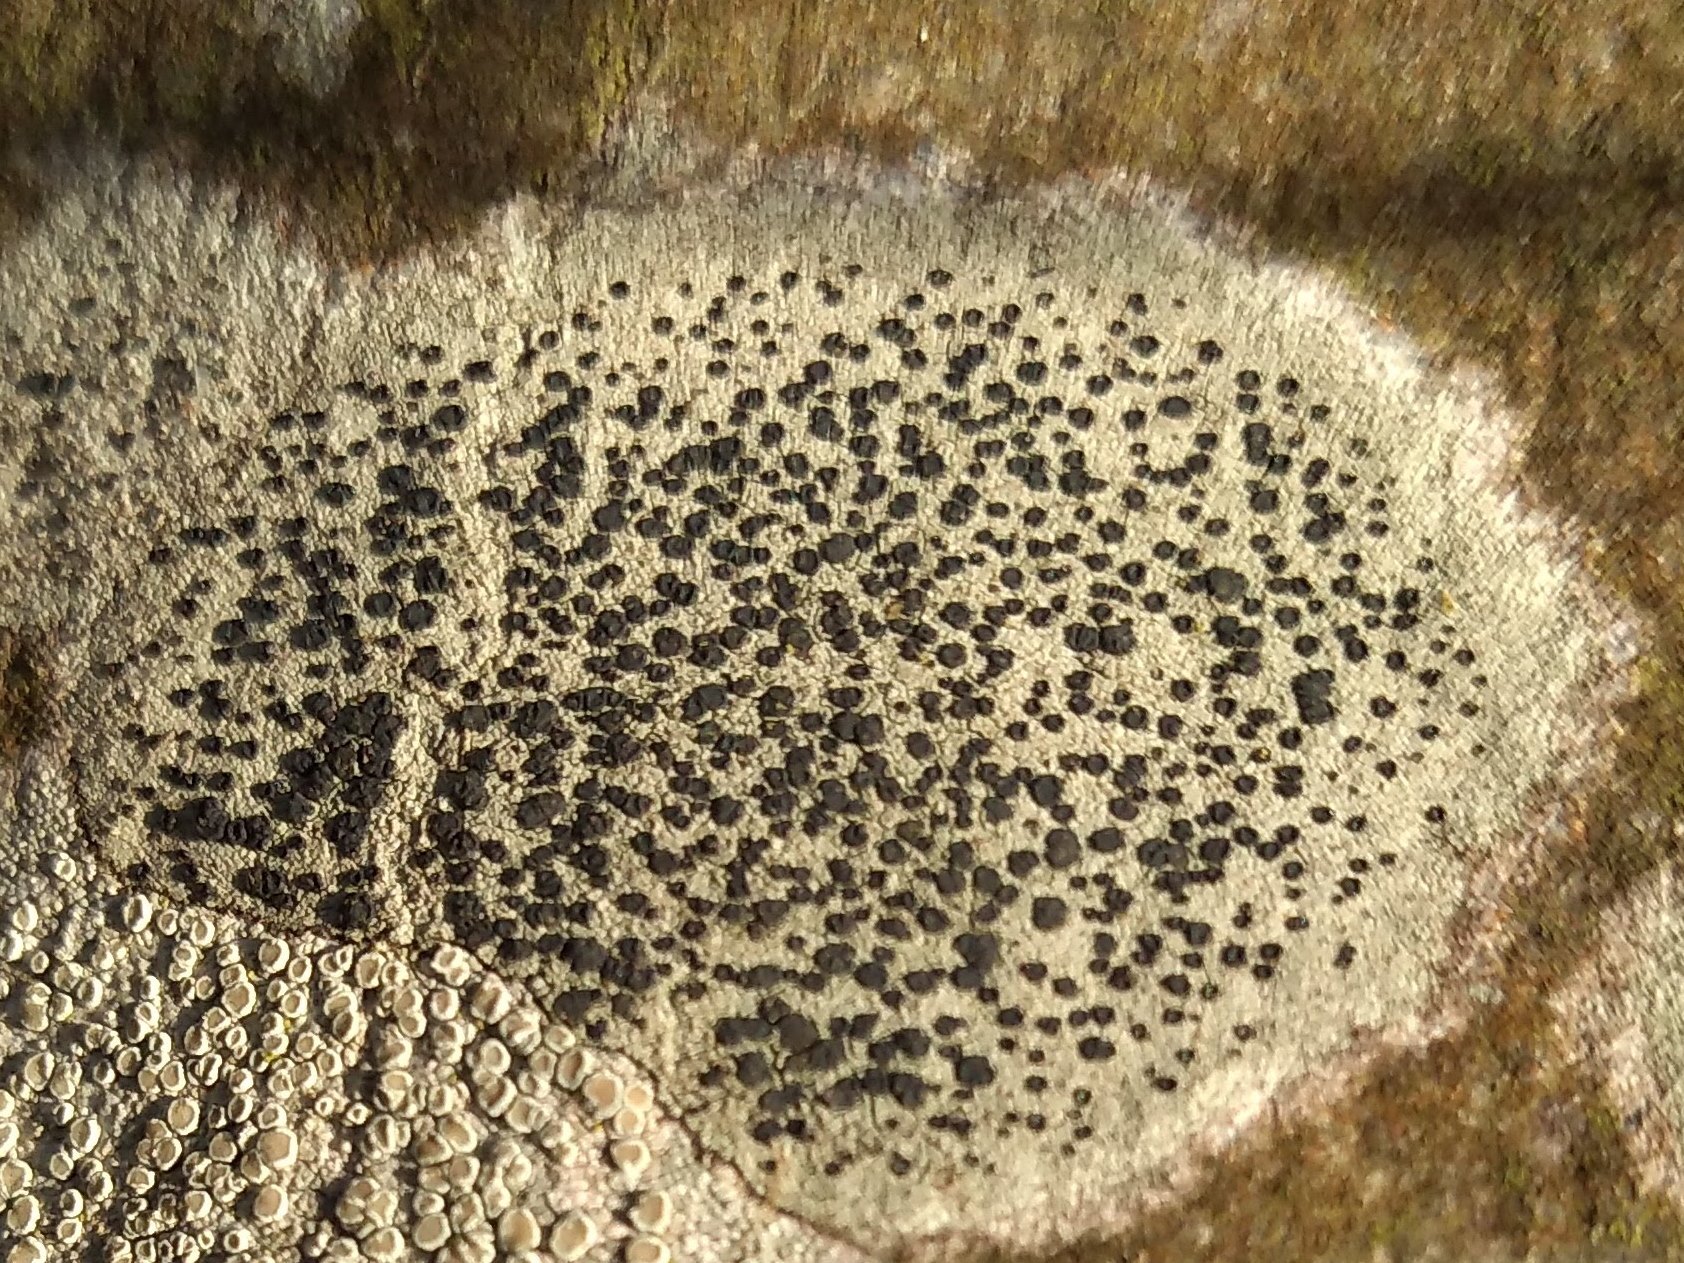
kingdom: Fungi
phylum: Ascomycota
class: Lecanoromycetes
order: Lecanorales
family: Lecanoraceae
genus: Lecidella
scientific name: Lecidella elaeochroma
